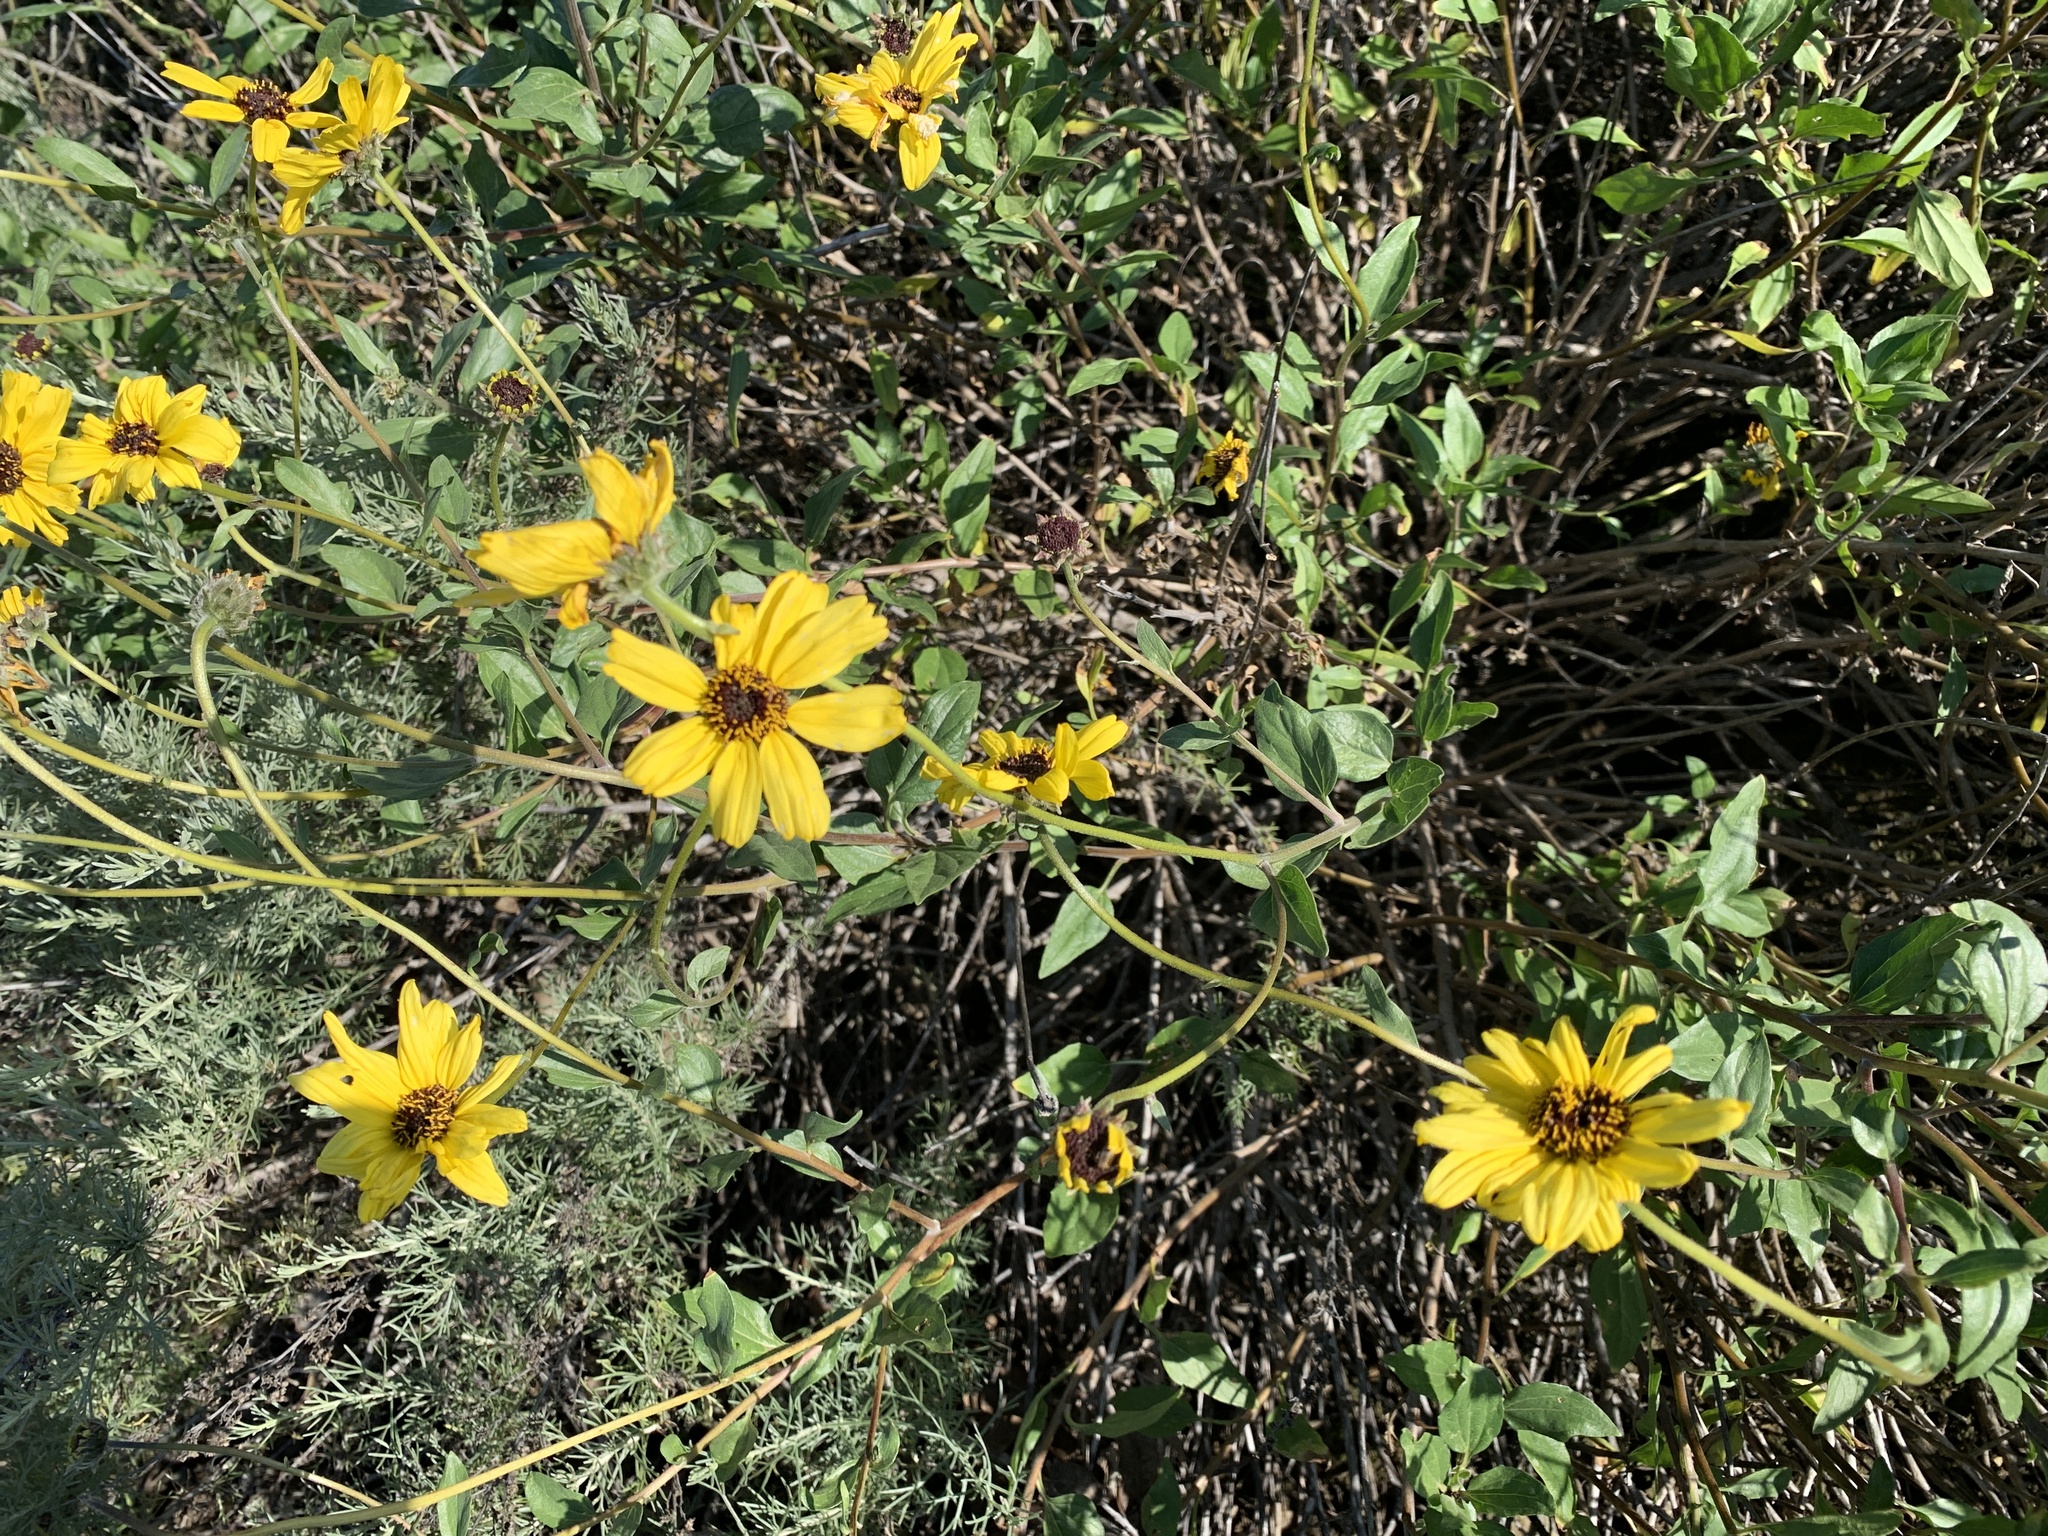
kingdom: Plantae
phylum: Tracheophyta
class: Magnoliopsida
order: Asterales
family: Asteraceae
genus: Encelia
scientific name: Encelia californica
